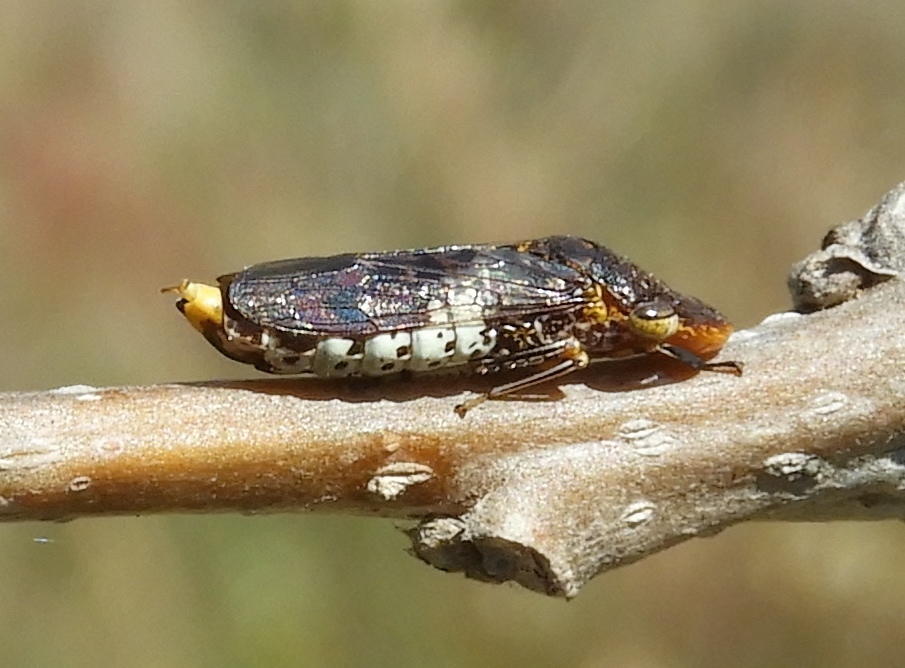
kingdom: Animalia
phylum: Arthropoda
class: Insecta
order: Hemiptera
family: Cicadellidae
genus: Homalodisca
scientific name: Homalodisca ichthyocephala
